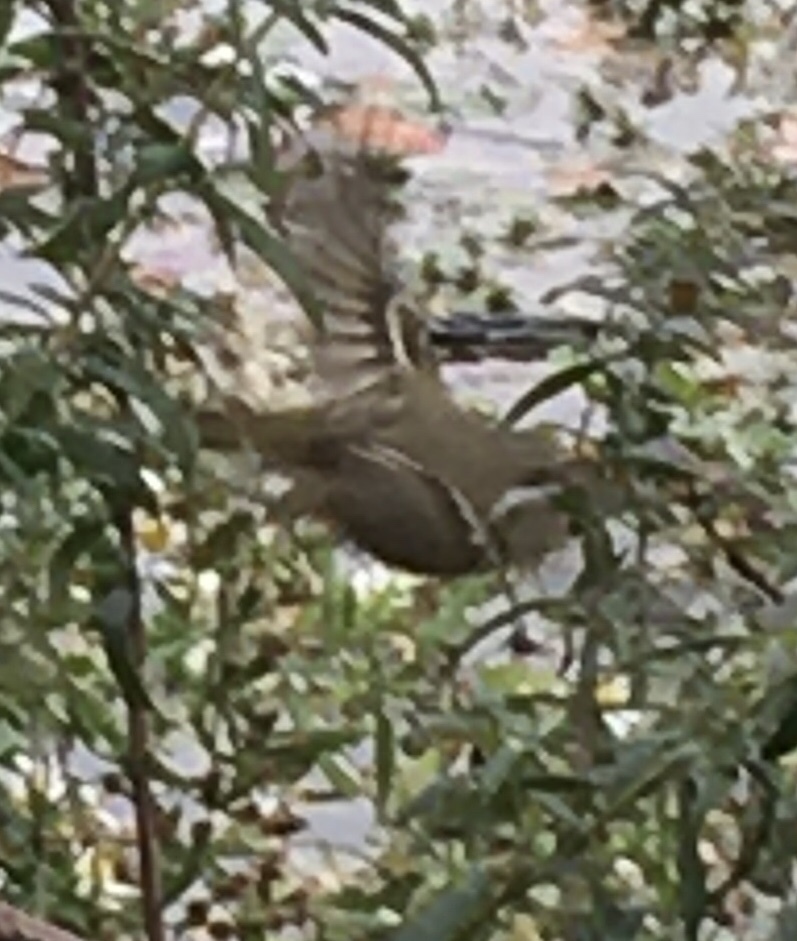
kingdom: Animalia
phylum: Chordata
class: Aves
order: Passeriformes
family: Regulidae
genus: Regulus
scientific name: Regulus calendula
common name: Ruby-crowned kinglet
